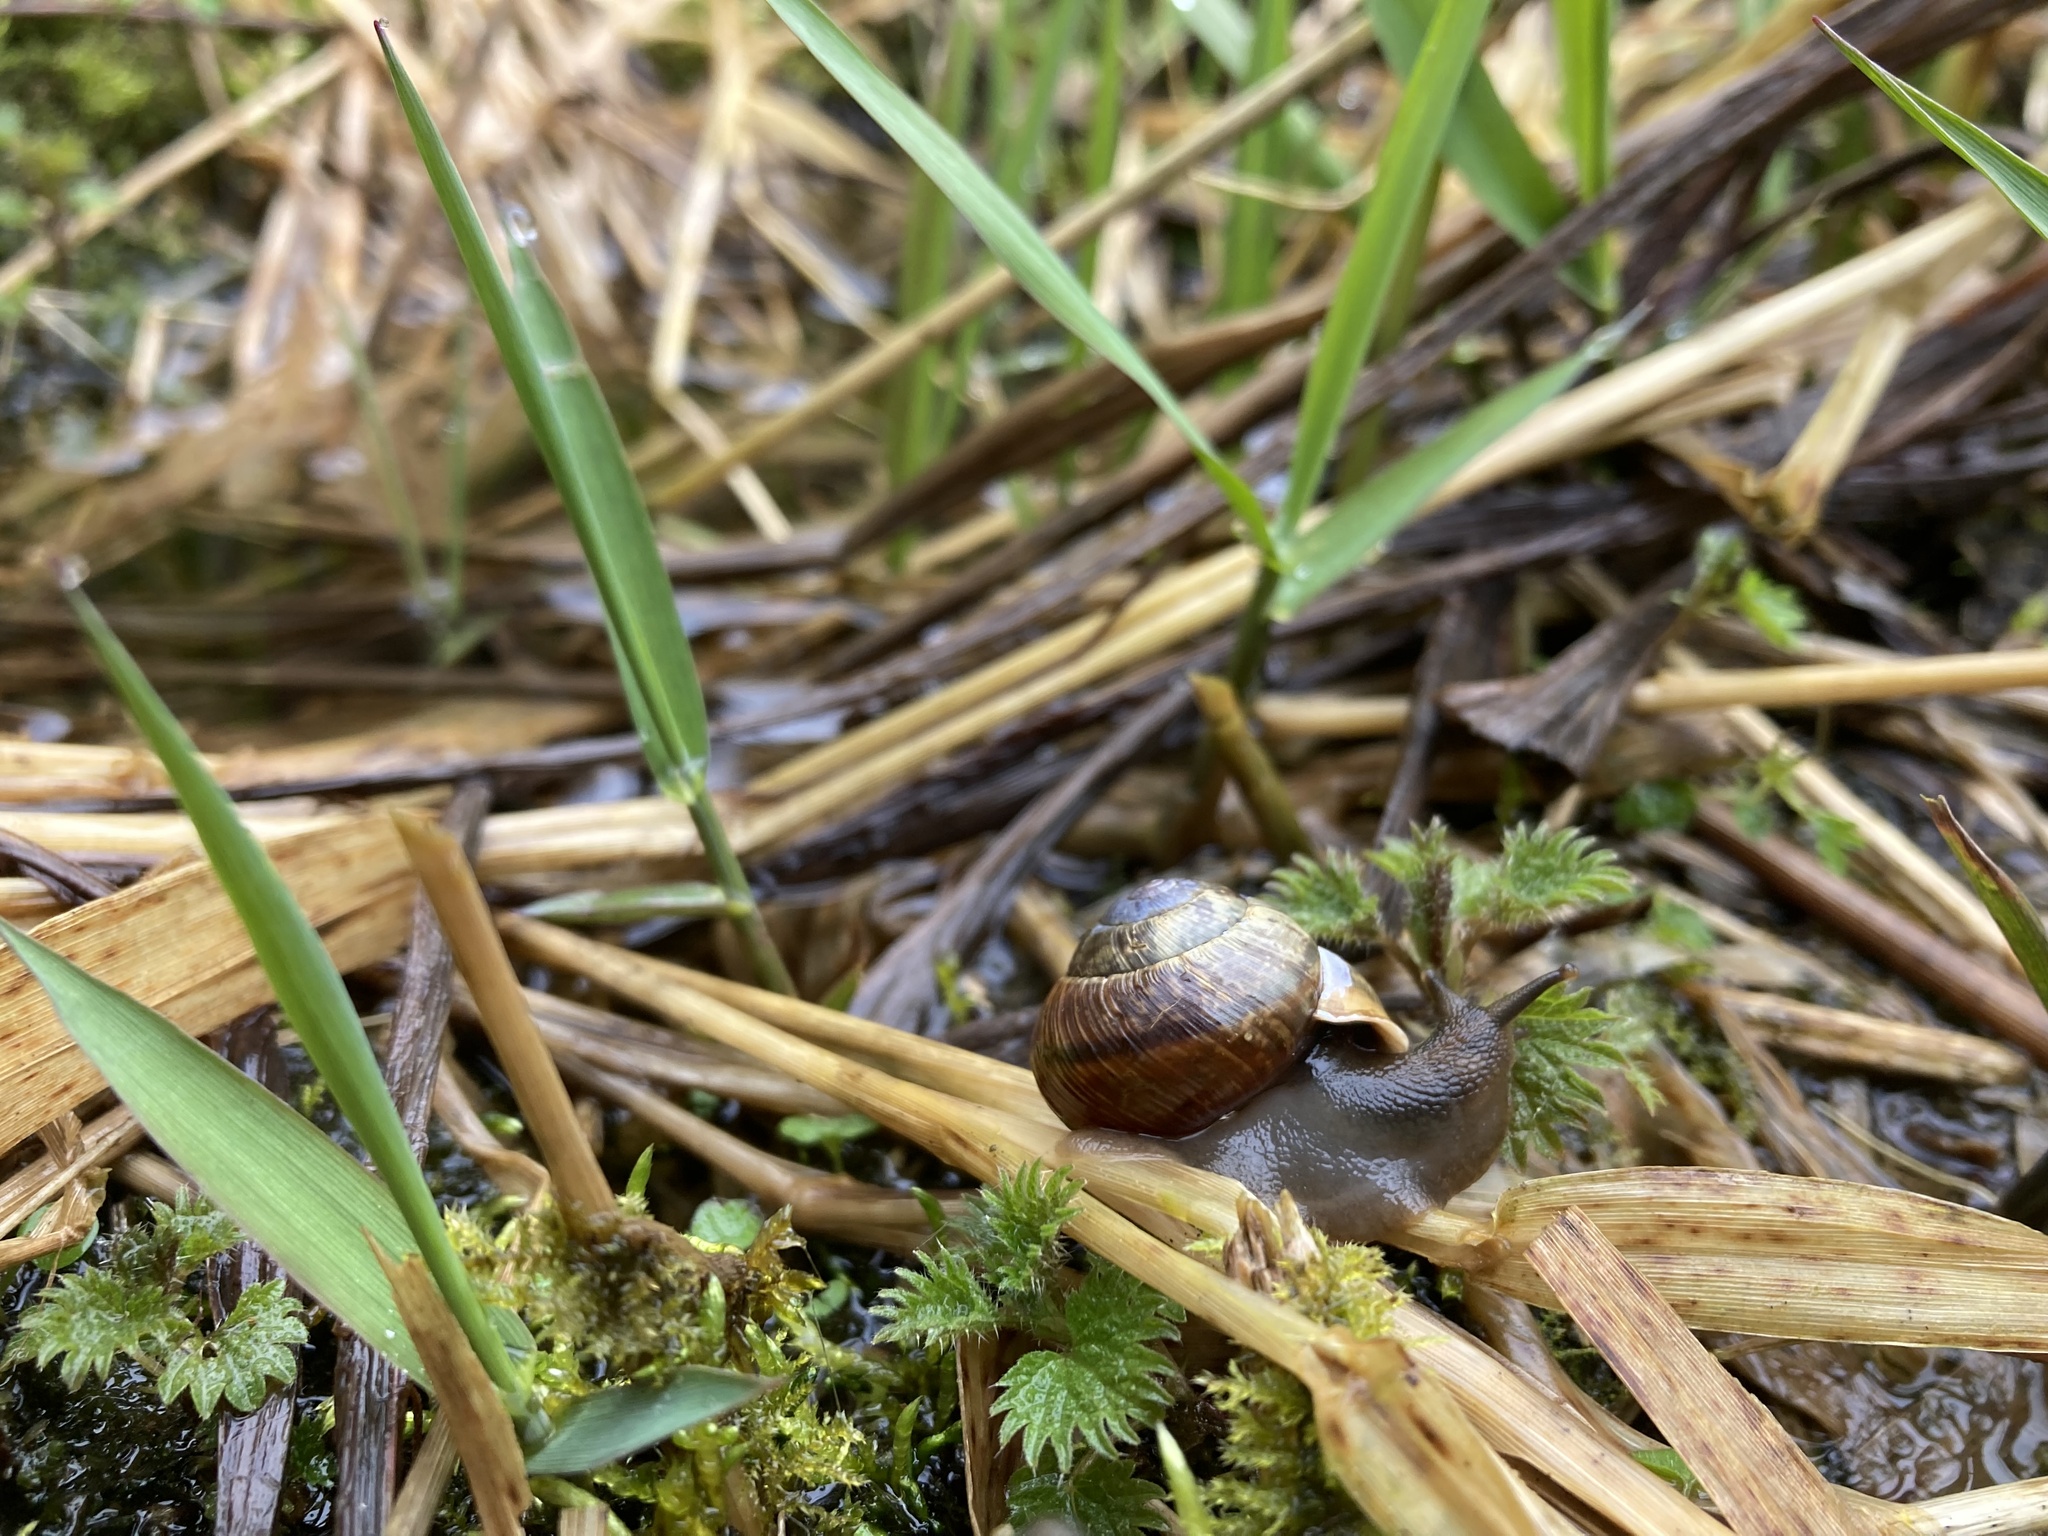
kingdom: Animalia
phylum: Mollusca
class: Gastropoda
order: Stylommatophora
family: Helicidae
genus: Arianta
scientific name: Arianta arbustorum
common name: Copse snail
